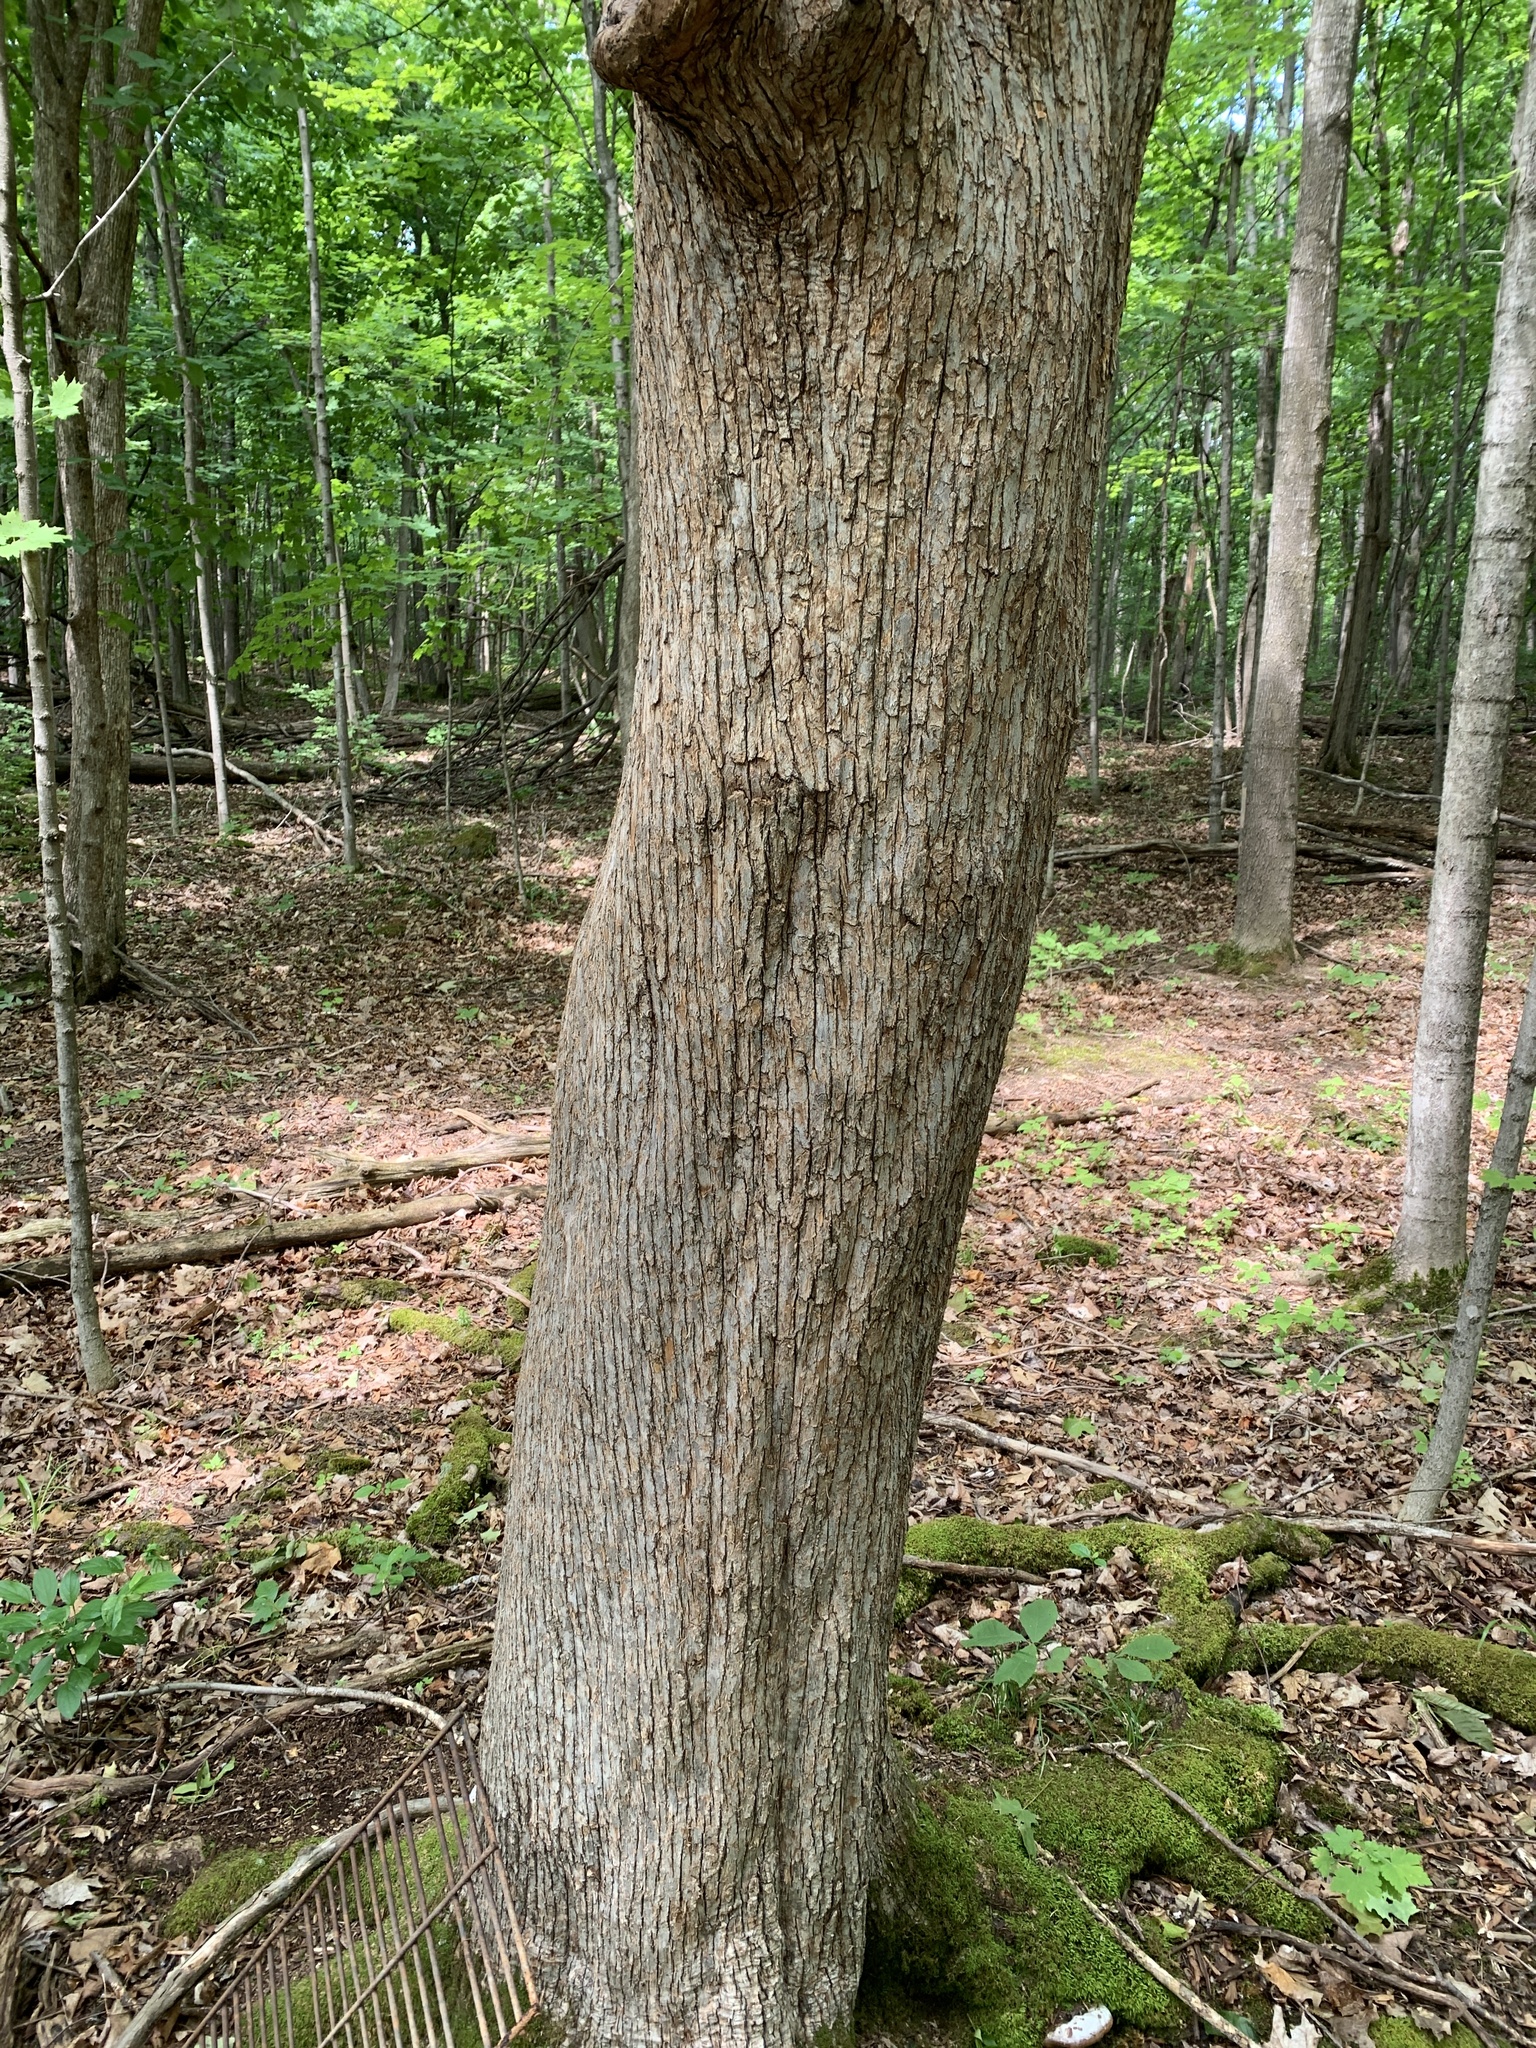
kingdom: Plantae
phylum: Tracheophyta
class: Magnoliopsida
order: Fagales
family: Betulaceae
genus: Ostrya
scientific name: Ostrya virginiana
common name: Ironwood
